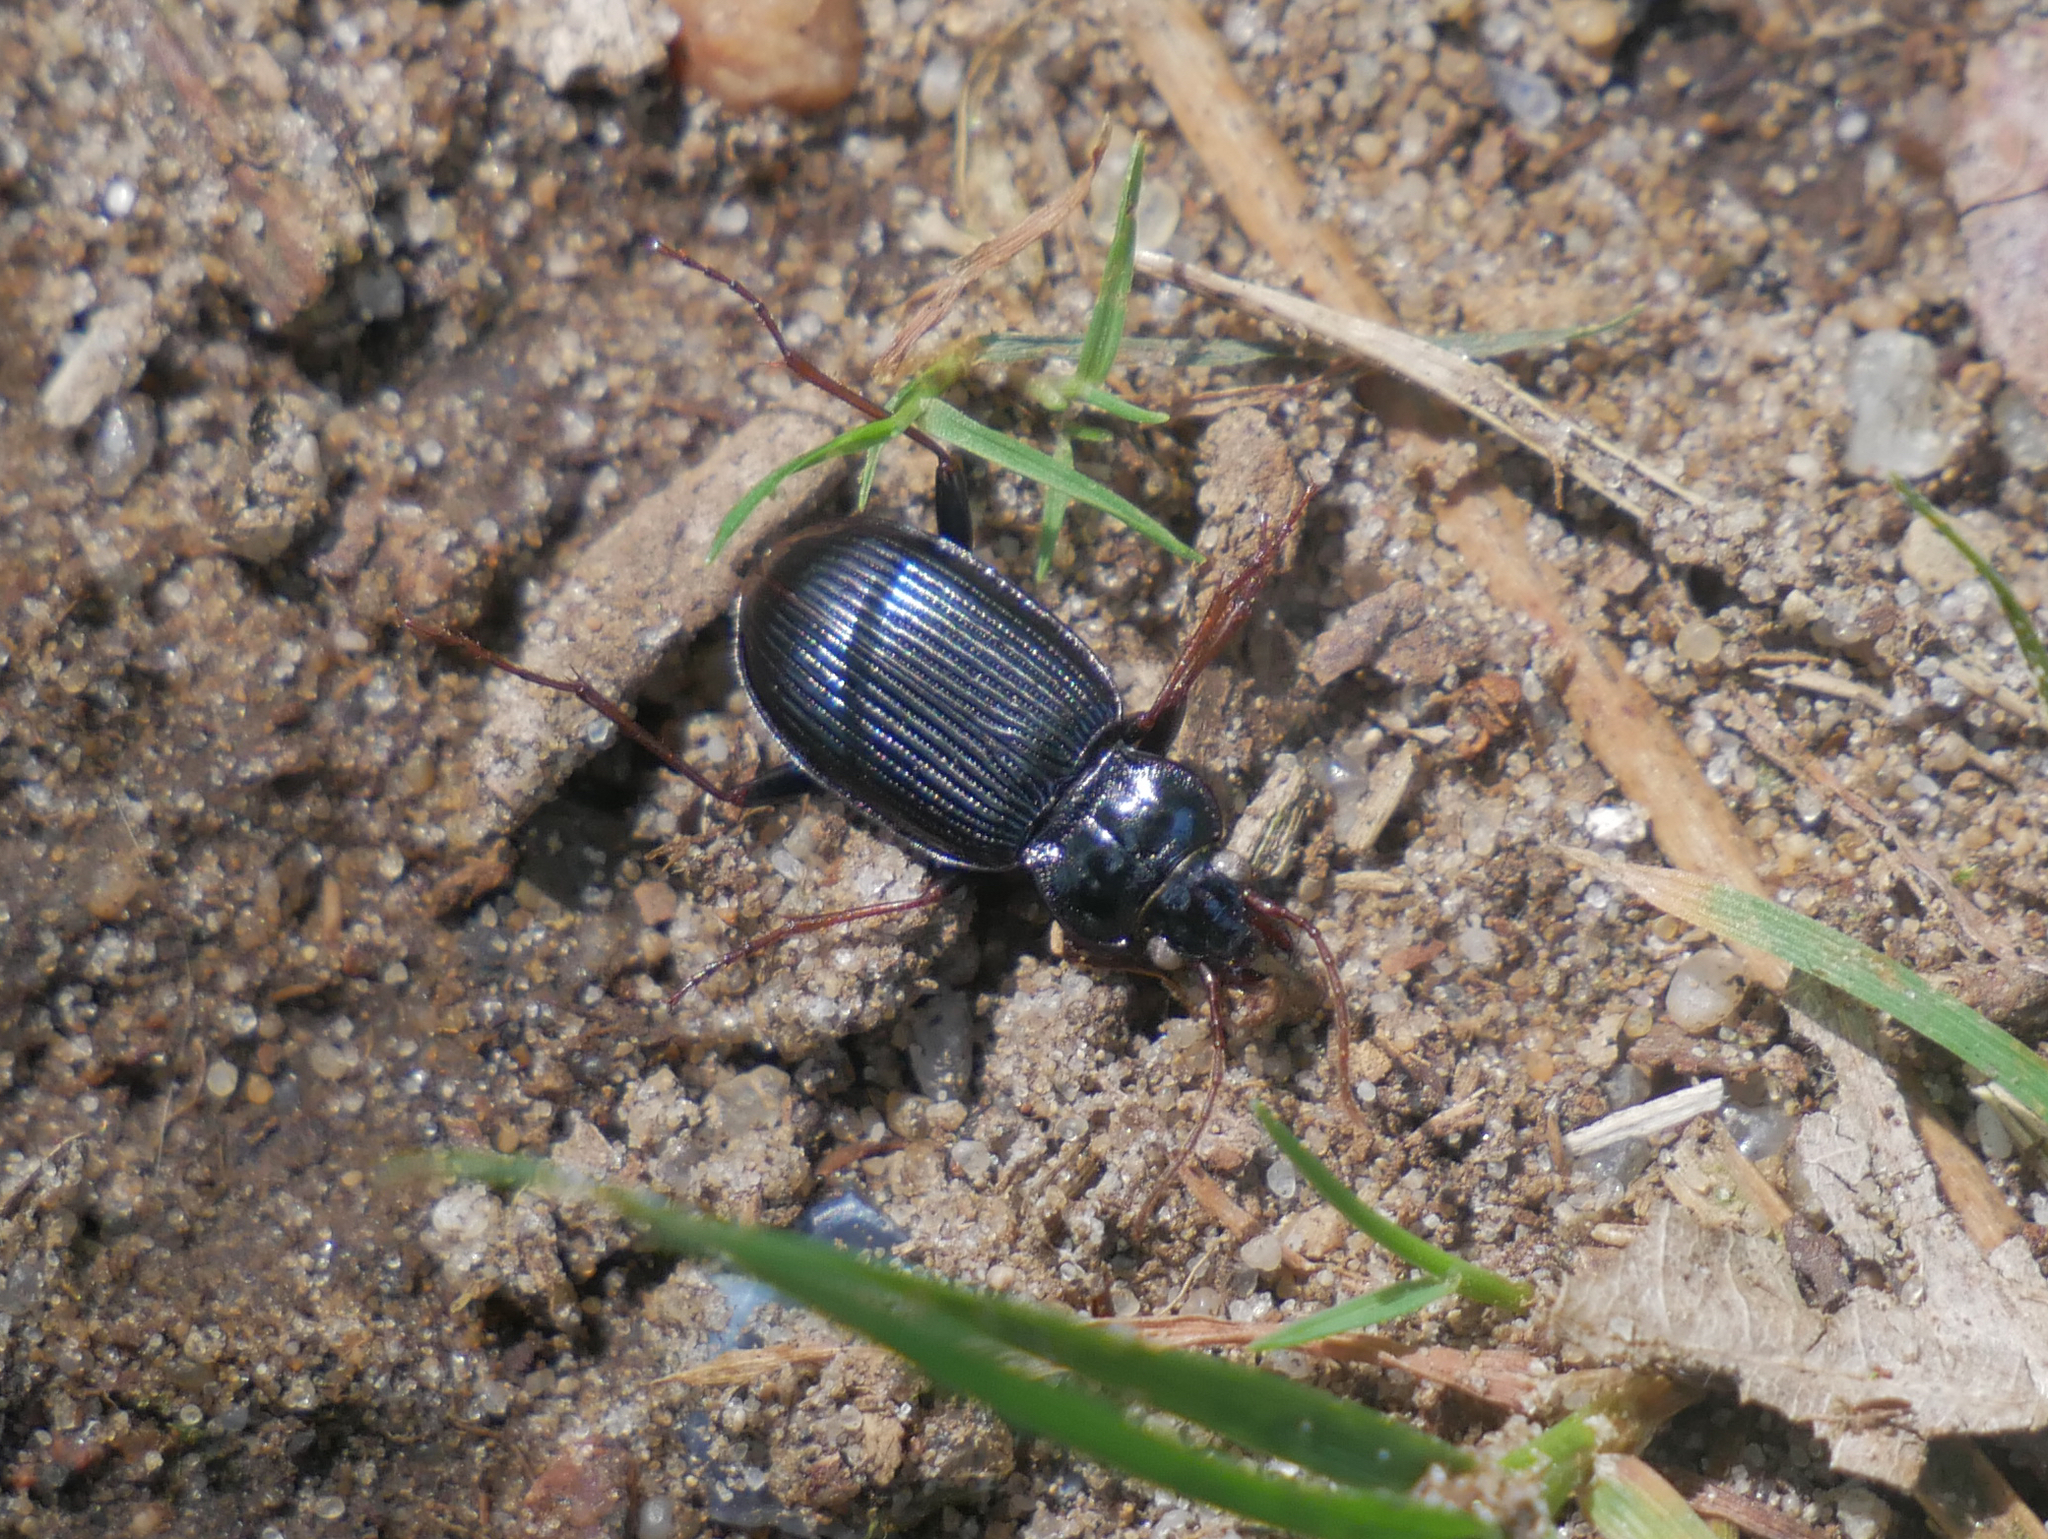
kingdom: Animalia
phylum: Arthropoda
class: Insecta
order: Coleoptera
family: Carabidae
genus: Nebria
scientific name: Nebria brevicollis
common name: Short-necked gazelle beetle
